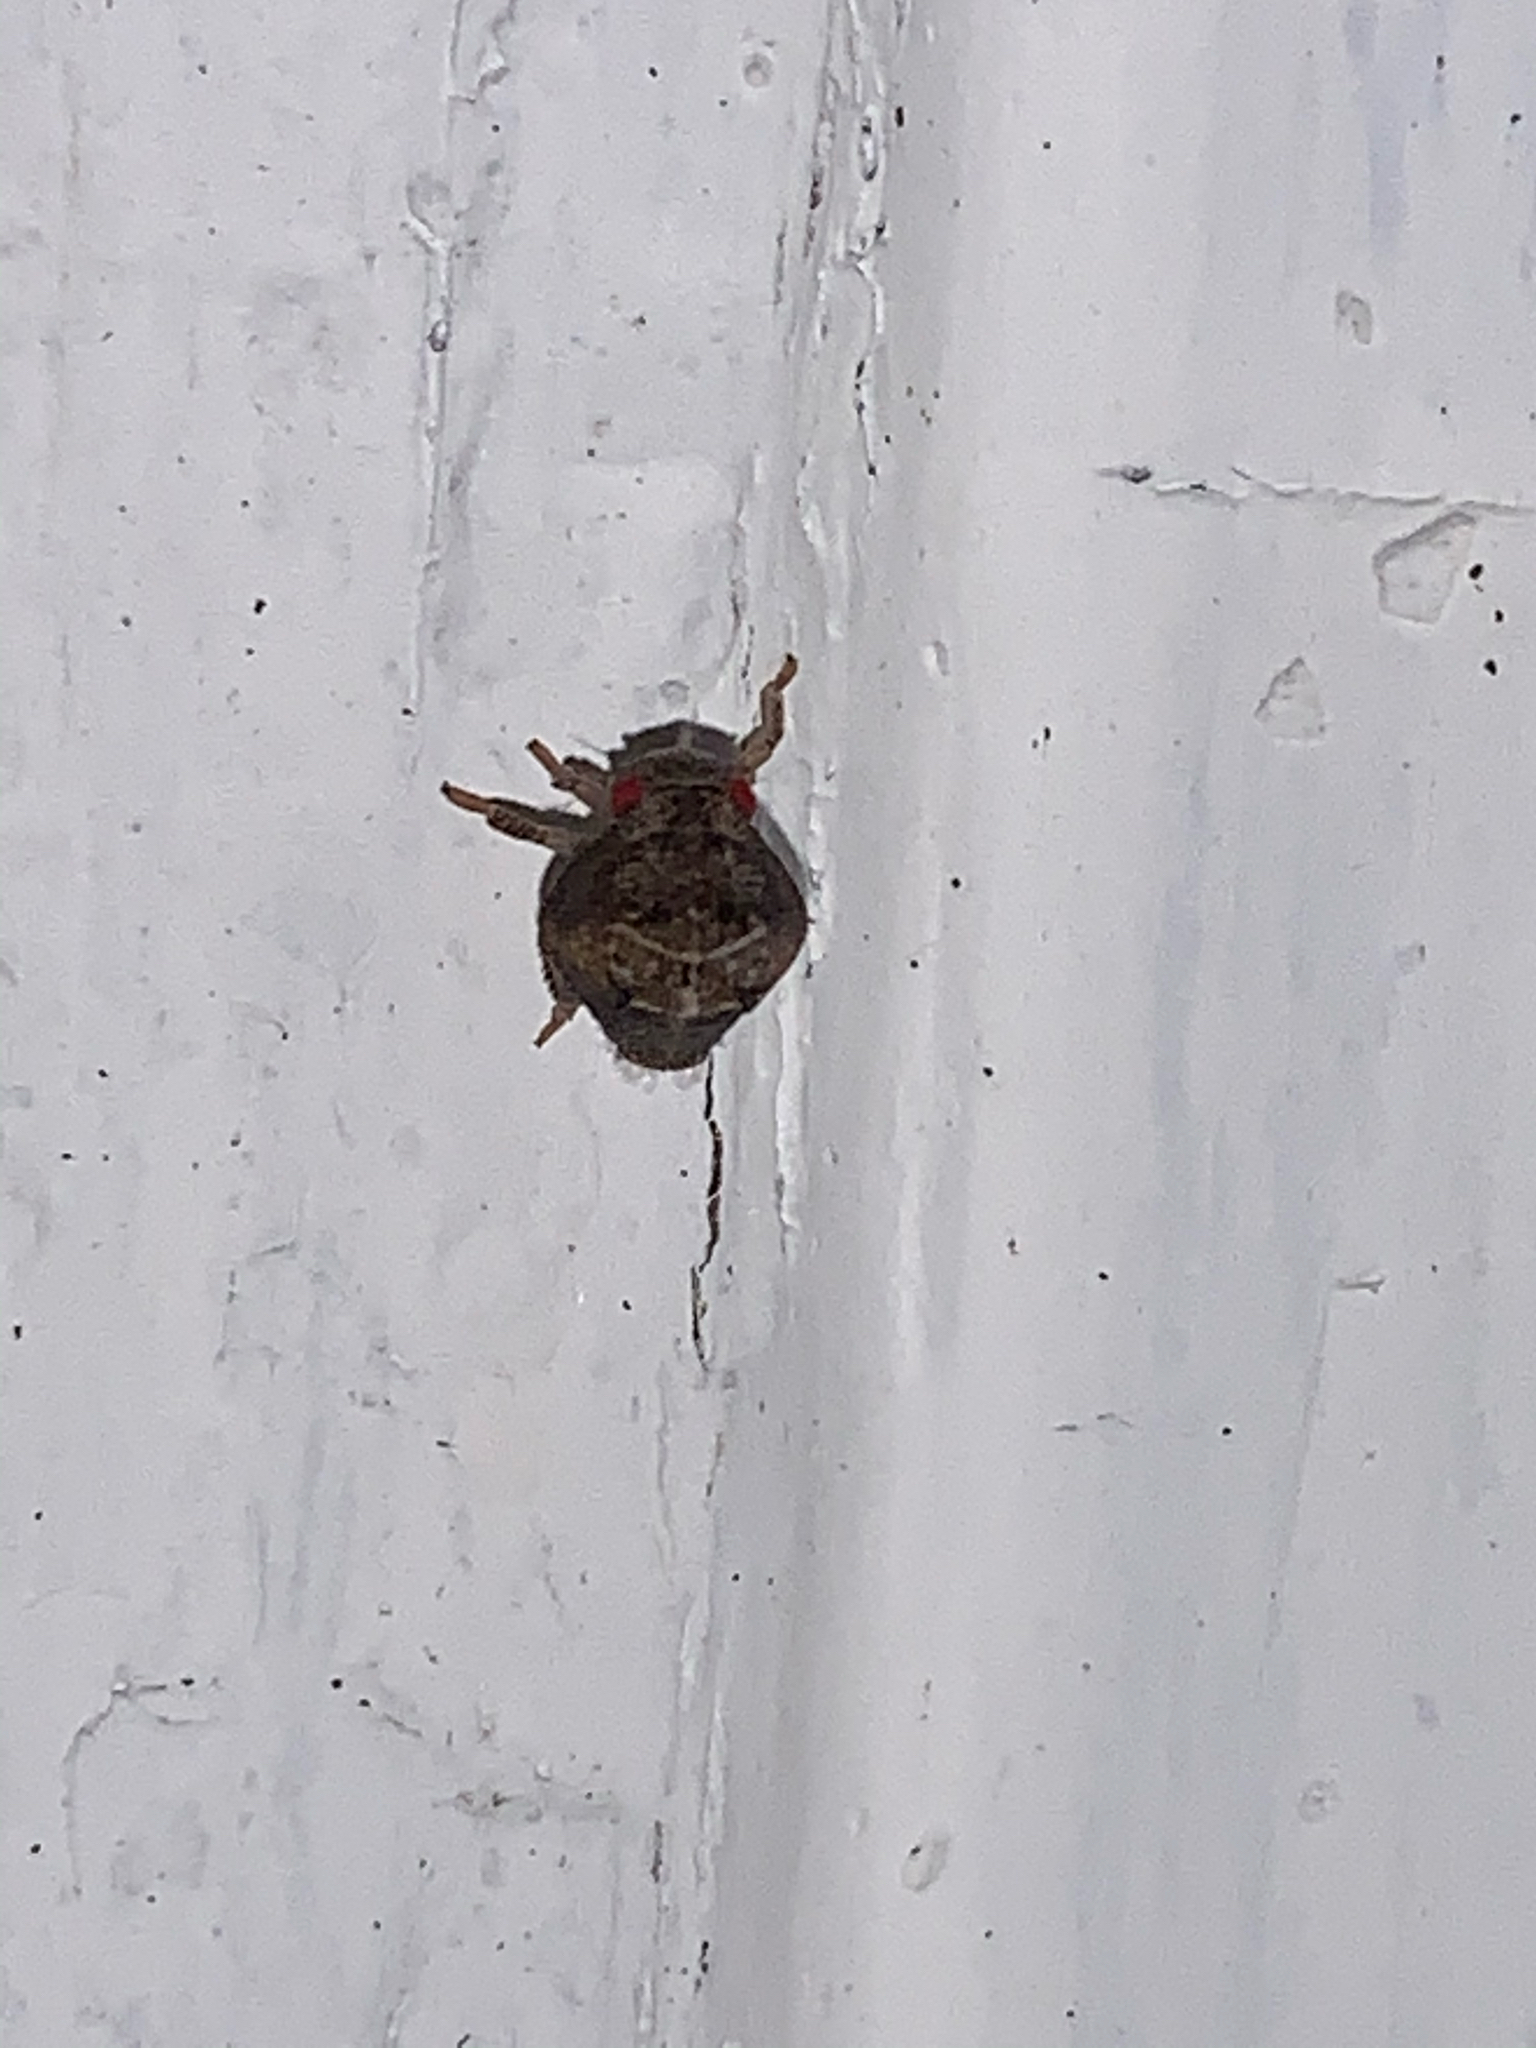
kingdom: Animalia
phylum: Arthropoda
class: Insecta
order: Hemiptera
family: Acanaloniidae
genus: Acanalonia
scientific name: Acanalonia
